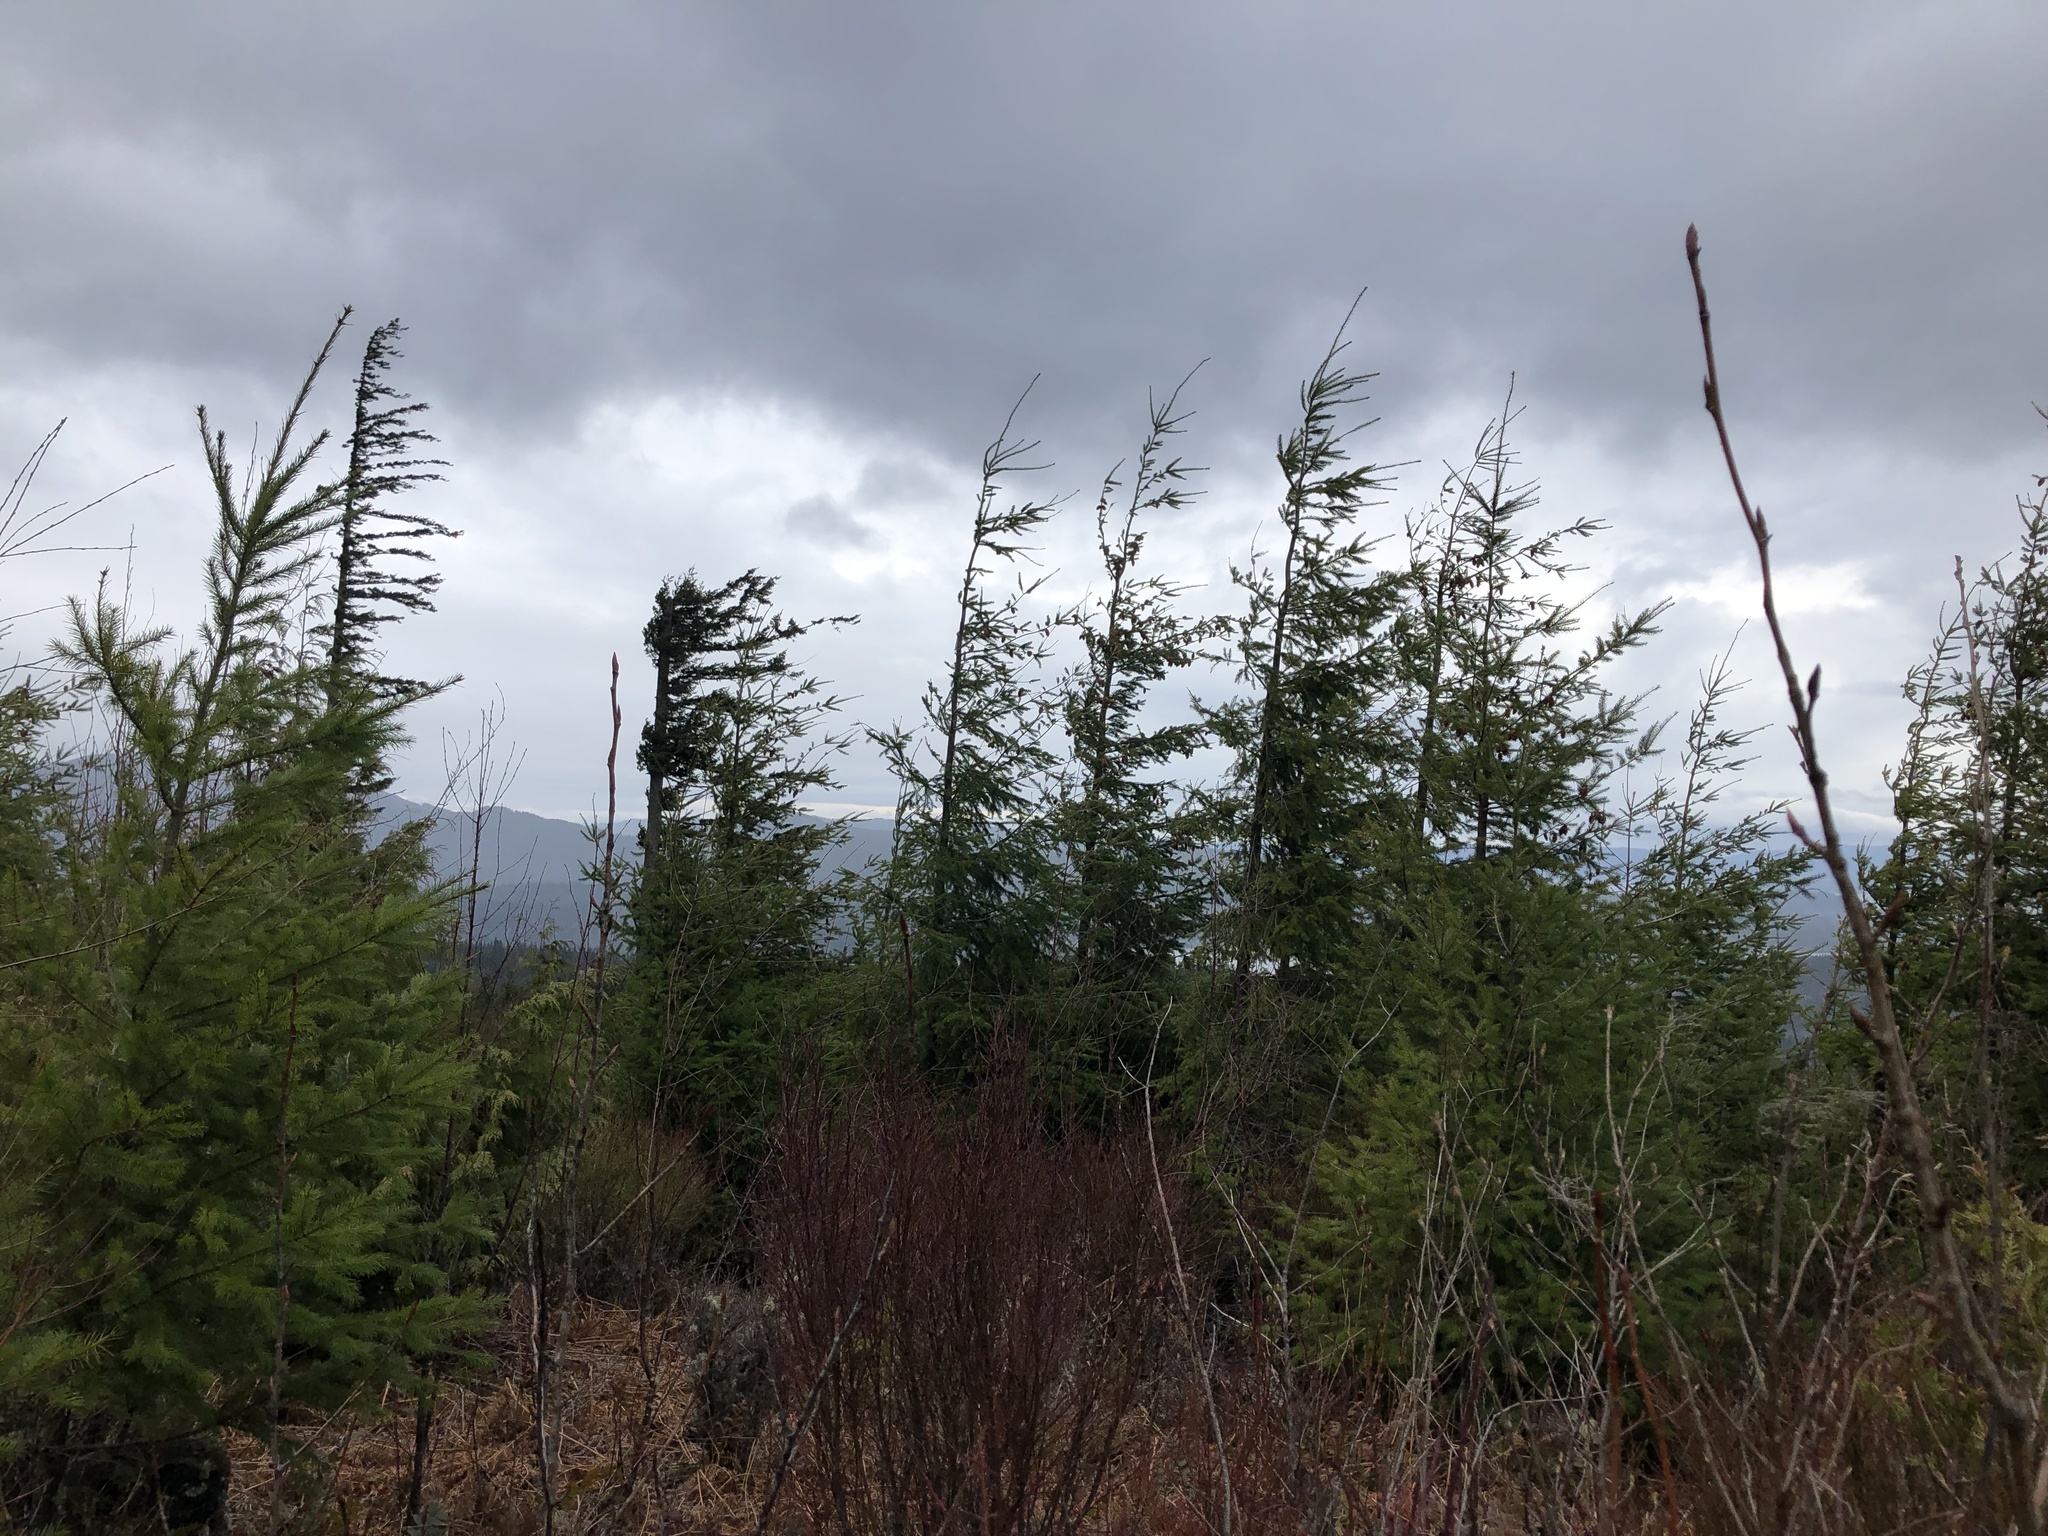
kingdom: Plantae
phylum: Tracheophyta
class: Pinopsida
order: Pinales
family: Pinaceae
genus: Pseudotsuga
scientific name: Pseudotsuga menziesii
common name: Douglas fir
